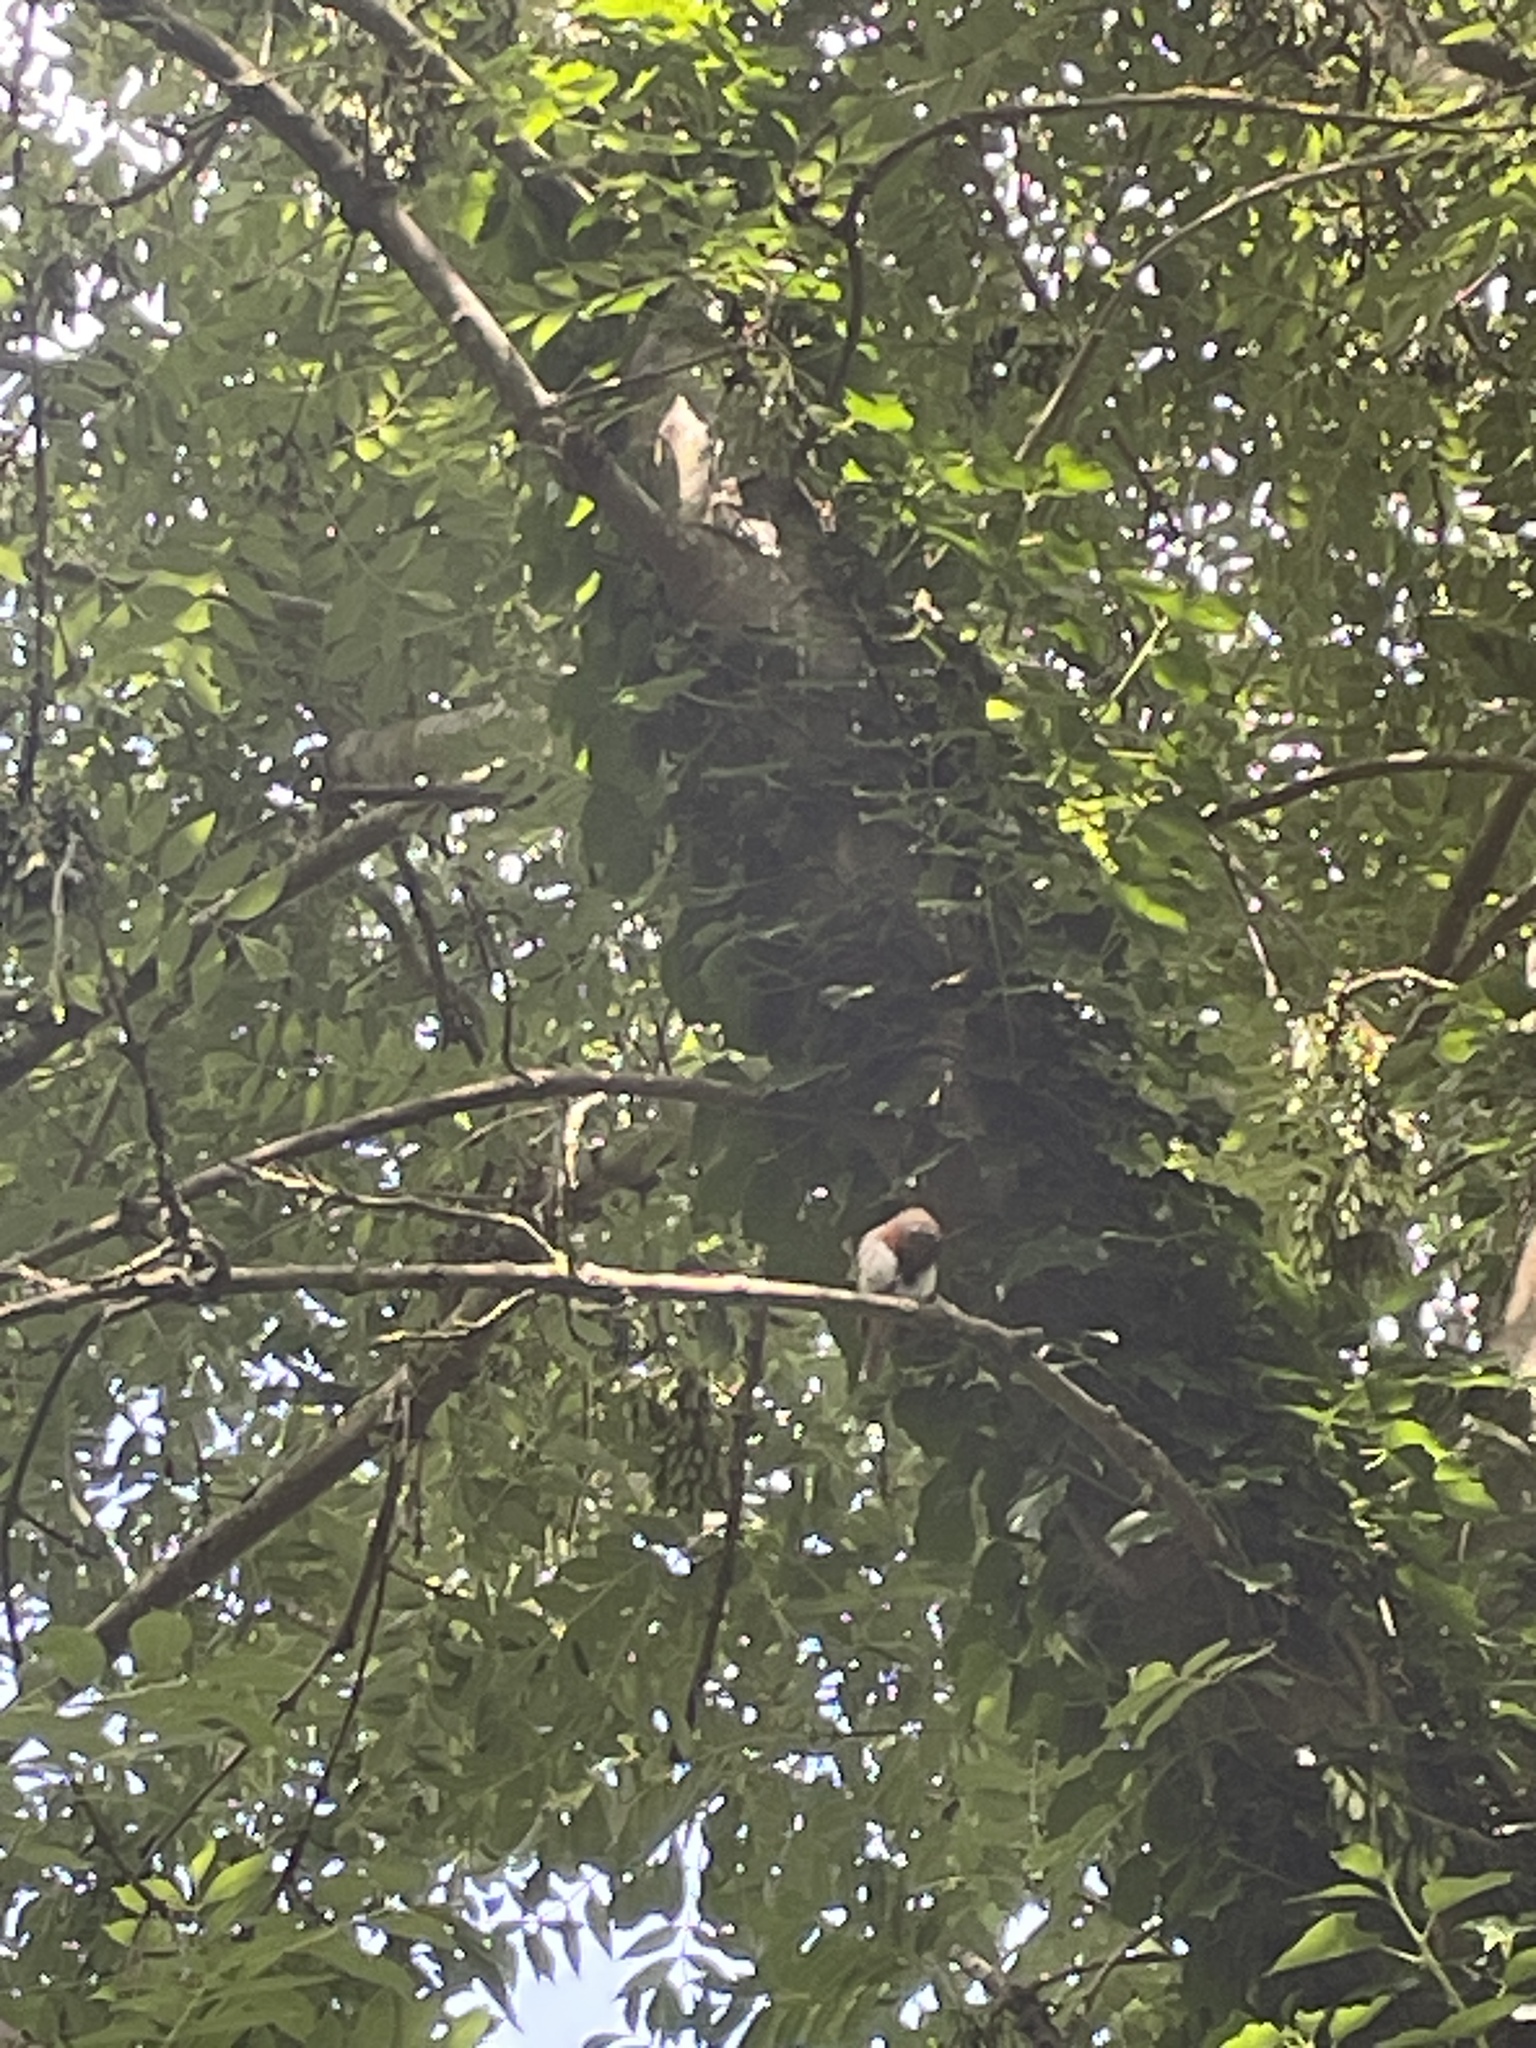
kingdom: Animalia
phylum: Chordata
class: Aves
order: Passeriformes
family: Muscicapidae
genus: Erithacus
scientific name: Erithacus rubecula
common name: European robin
